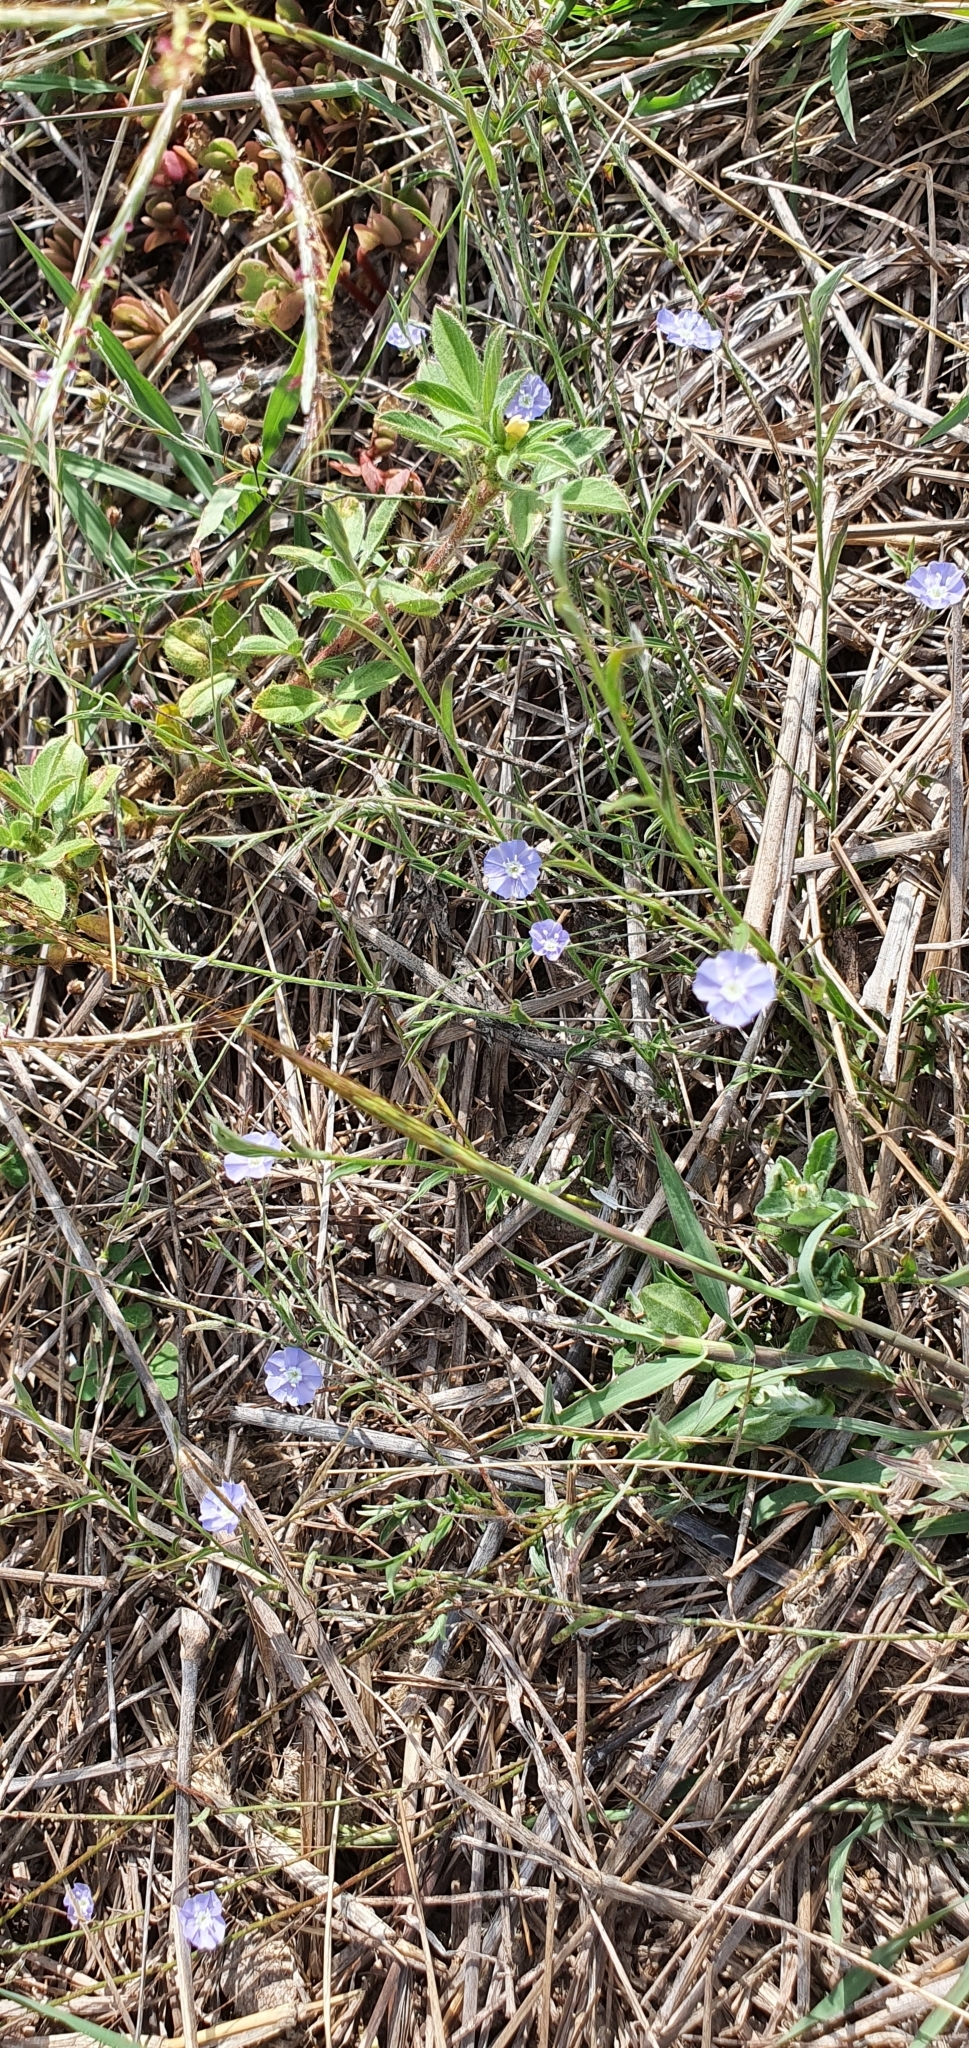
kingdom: Plantae
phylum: Tracheophyta
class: Magnoliopsida
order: Solanales
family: Convolvulaceae
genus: Evolvulus
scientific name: Evolvulus alsinoides
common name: Slender dwarf morning-glory
